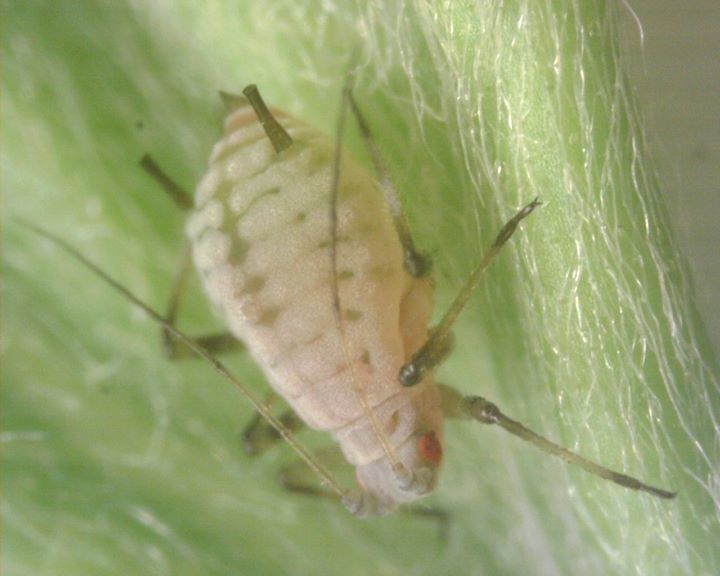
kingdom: Animalia
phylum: Arthropoda
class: Insecta
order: Hemiptera
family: Aphididae
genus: Aphis
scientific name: Aphis kurosawai
